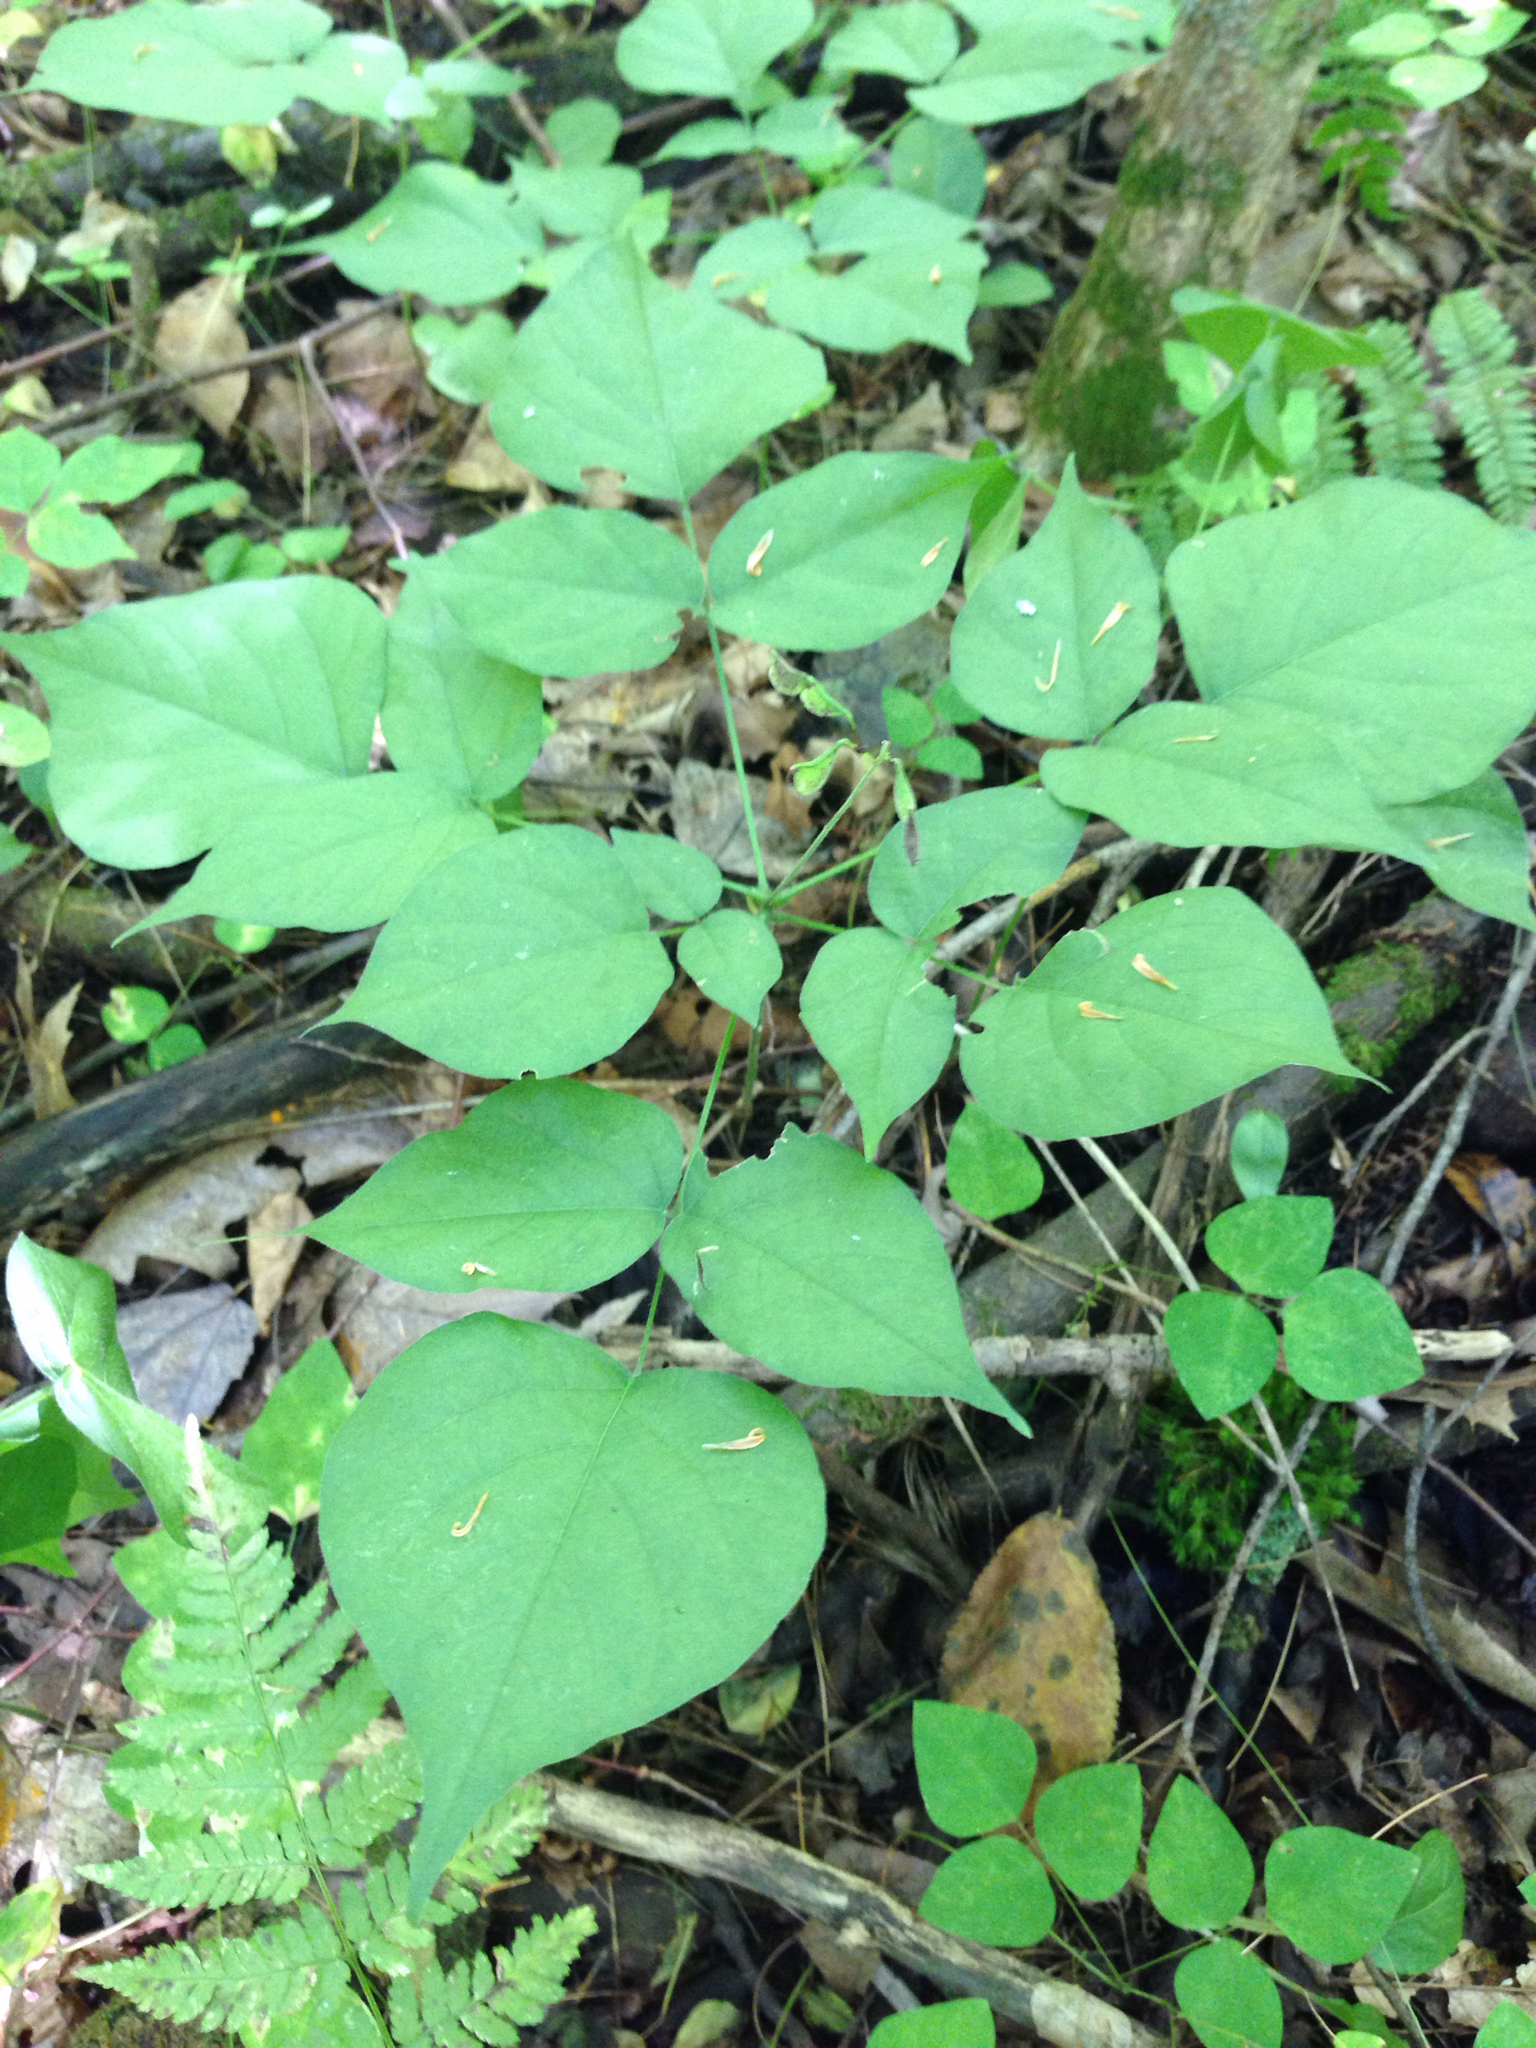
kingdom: Plantae
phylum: Tracheophyta
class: Magnoliopsida
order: Fabales
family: Fabaceae
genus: Hylodesmum
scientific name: Hylodesmum glutinosum
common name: Clustered-leaved tick-trefoil
